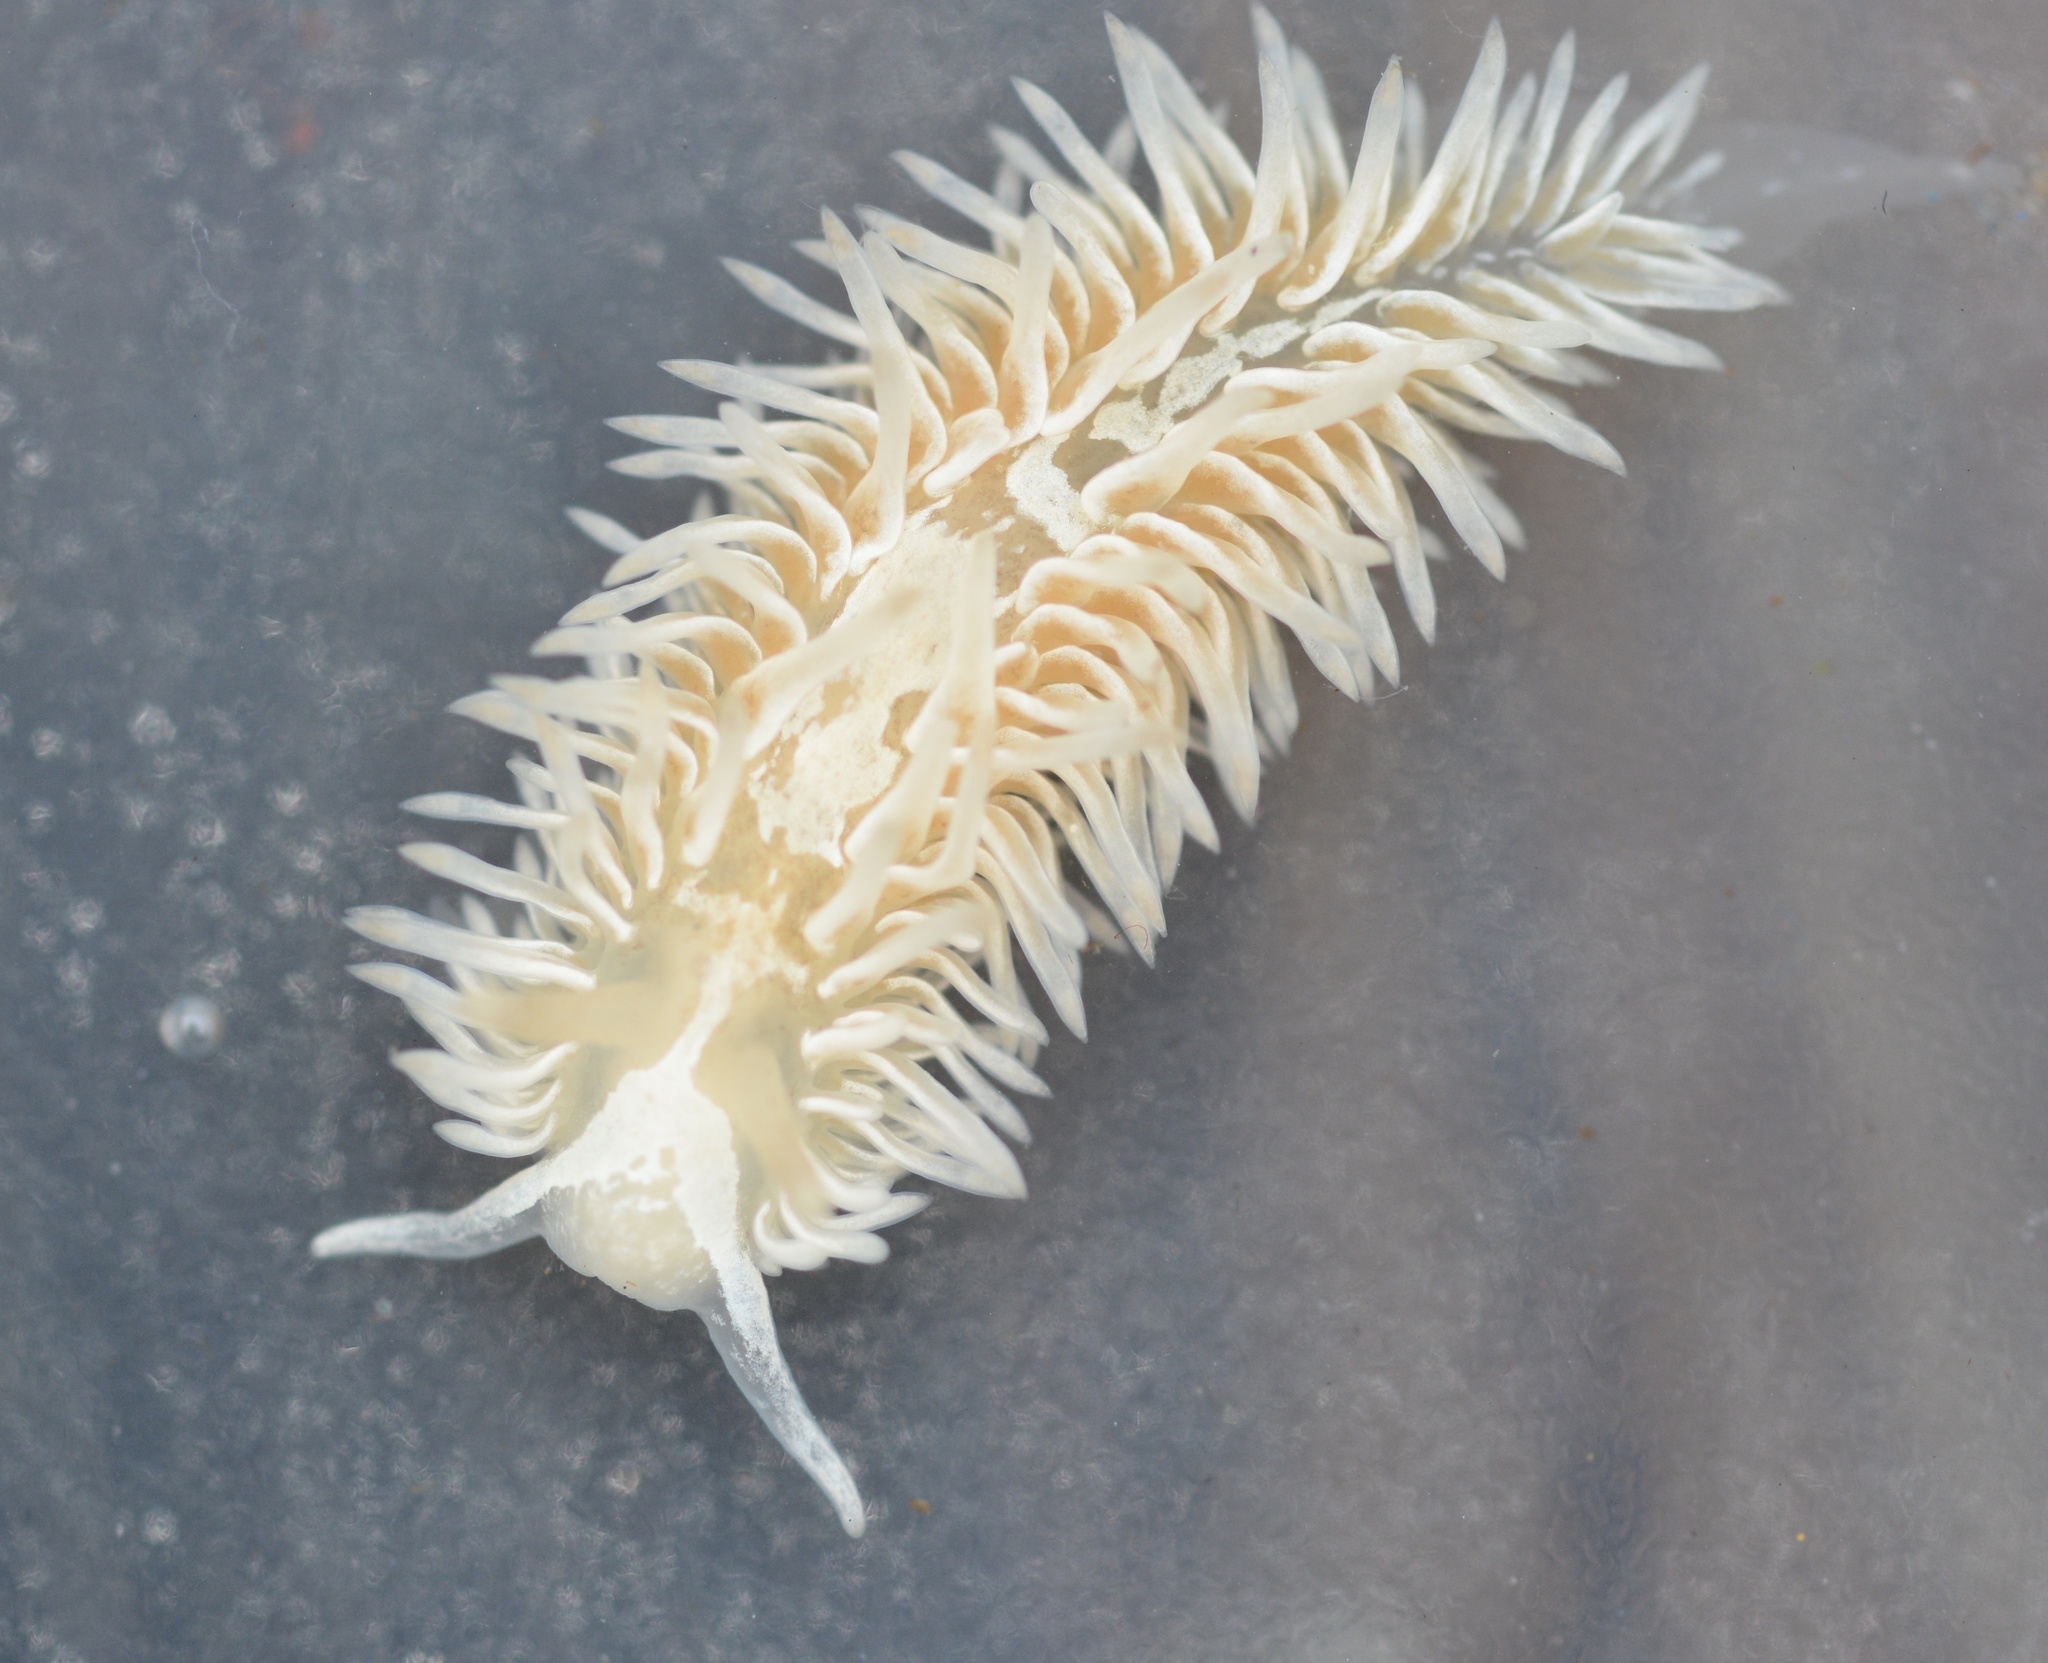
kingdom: Animalia
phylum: Mollusca
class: Gastropoda
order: Nudibranchia
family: Aeolidiidae
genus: Aeolidia
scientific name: Aeolidia loui
